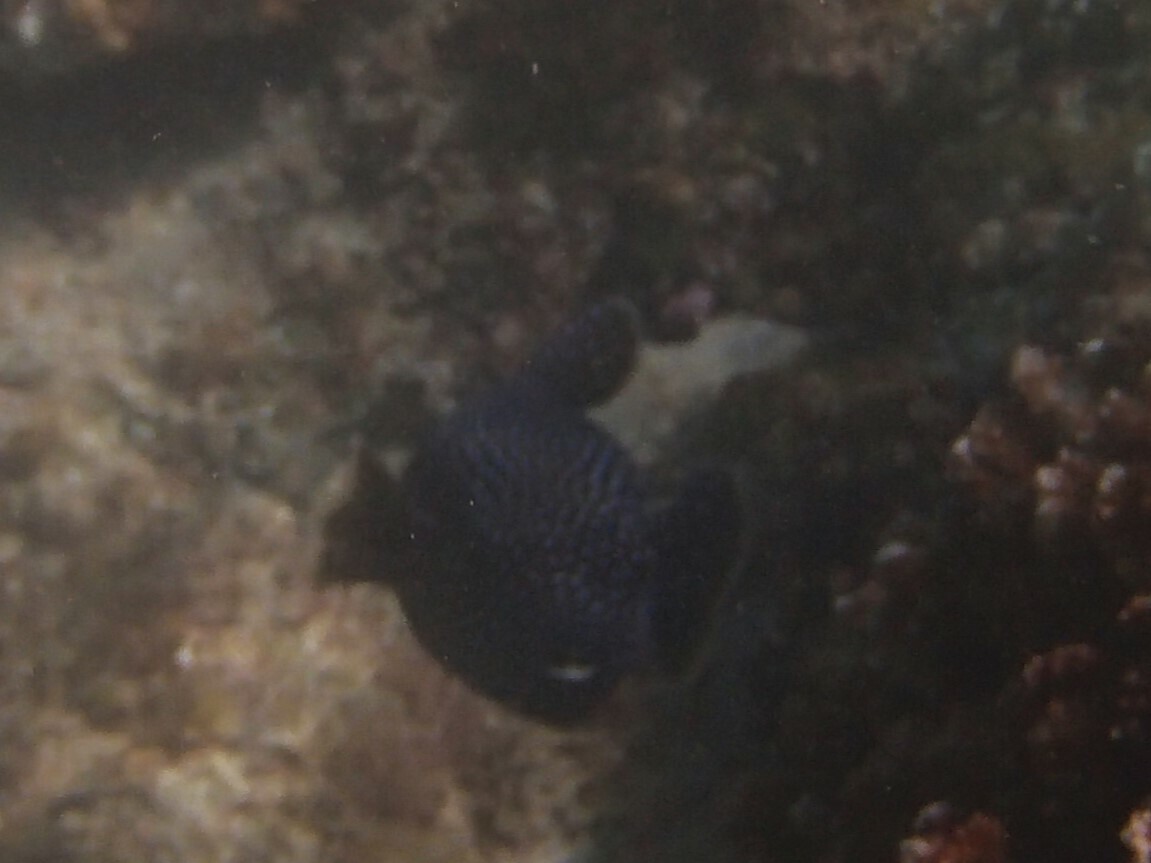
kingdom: Animalia
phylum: Chordata
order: Tetraodontiformes
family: Tetraodontidae
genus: Arothron
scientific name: Arothron meleagris
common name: Guinea-fowl pufferfish
